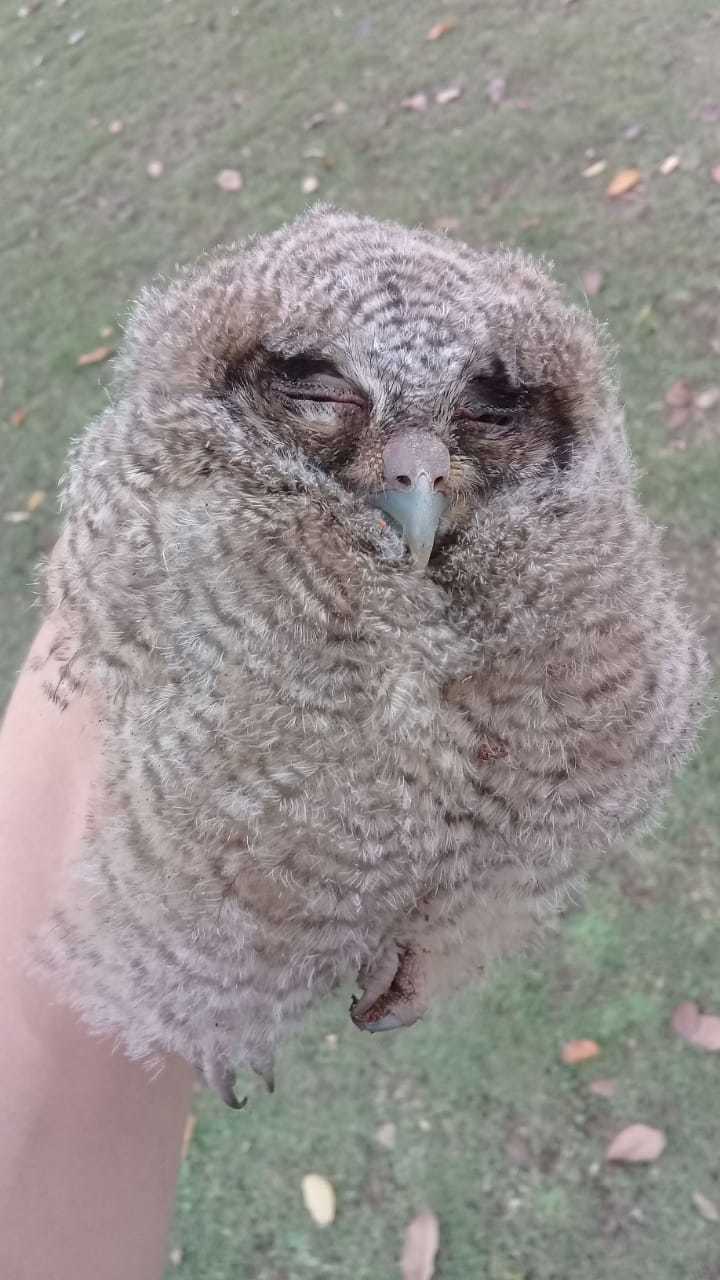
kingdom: Animalia
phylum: Chordata
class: Aves
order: Strigiformes
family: Strigidae
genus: Megascops
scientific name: Megascops choliba
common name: Tropical screech-owl
